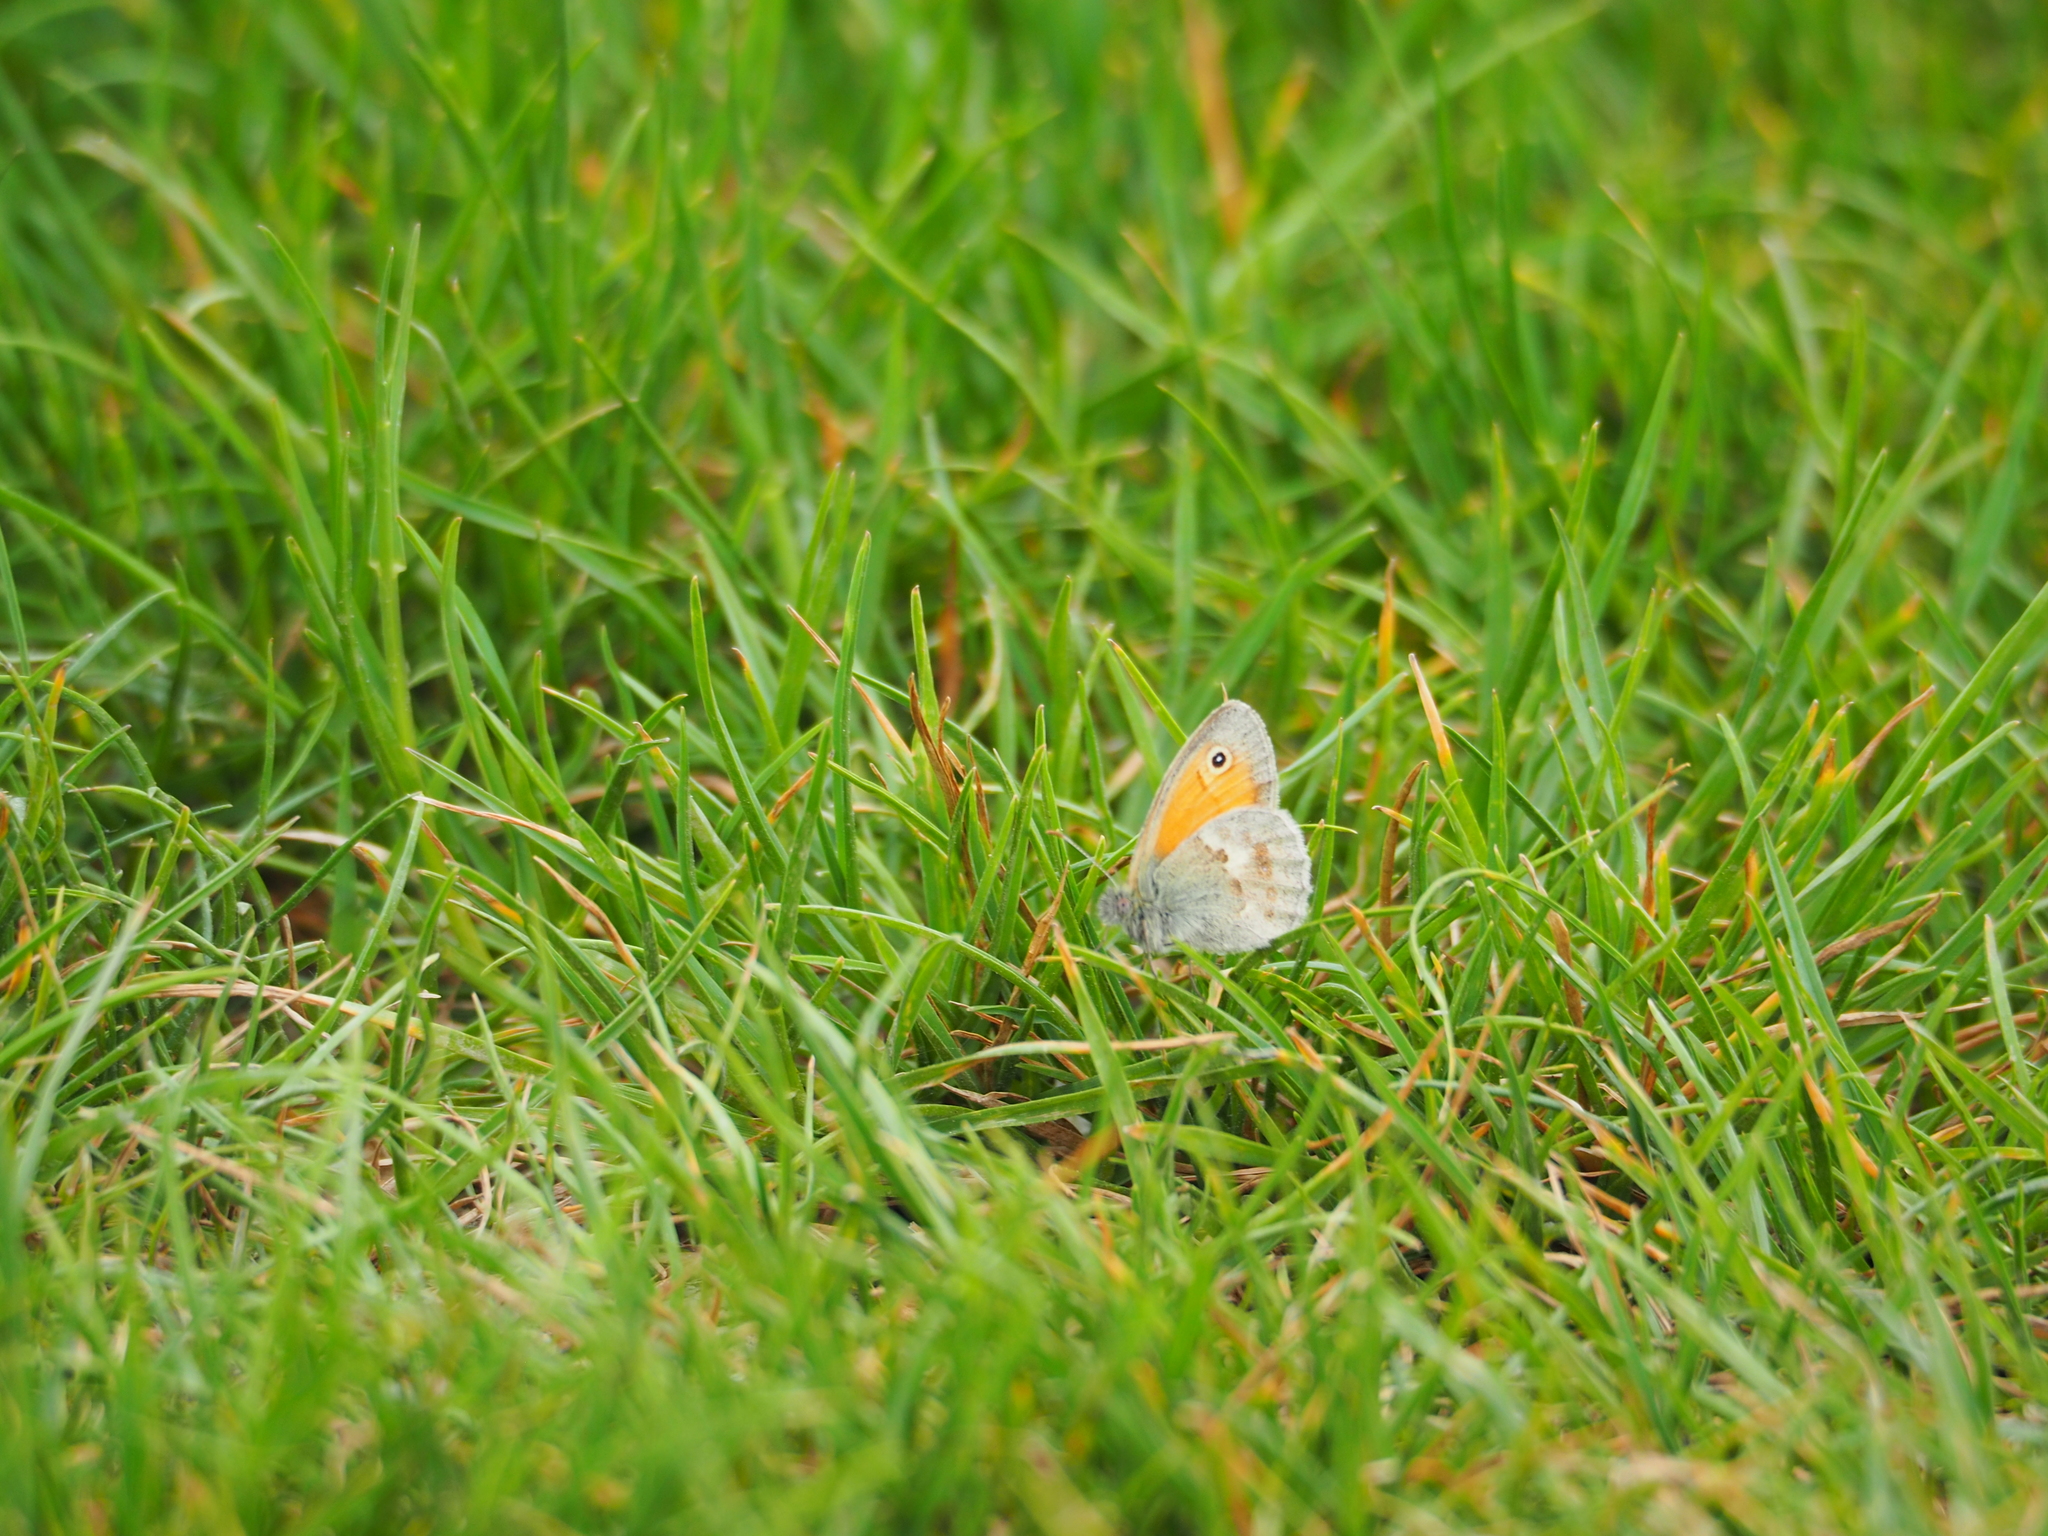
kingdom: Animalia
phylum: Arthropoda
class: Insecta
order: Lepidoptera
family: Nymphalidae
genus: Coenonympha
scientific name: Coenonympha pamphilus
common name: Small heath
